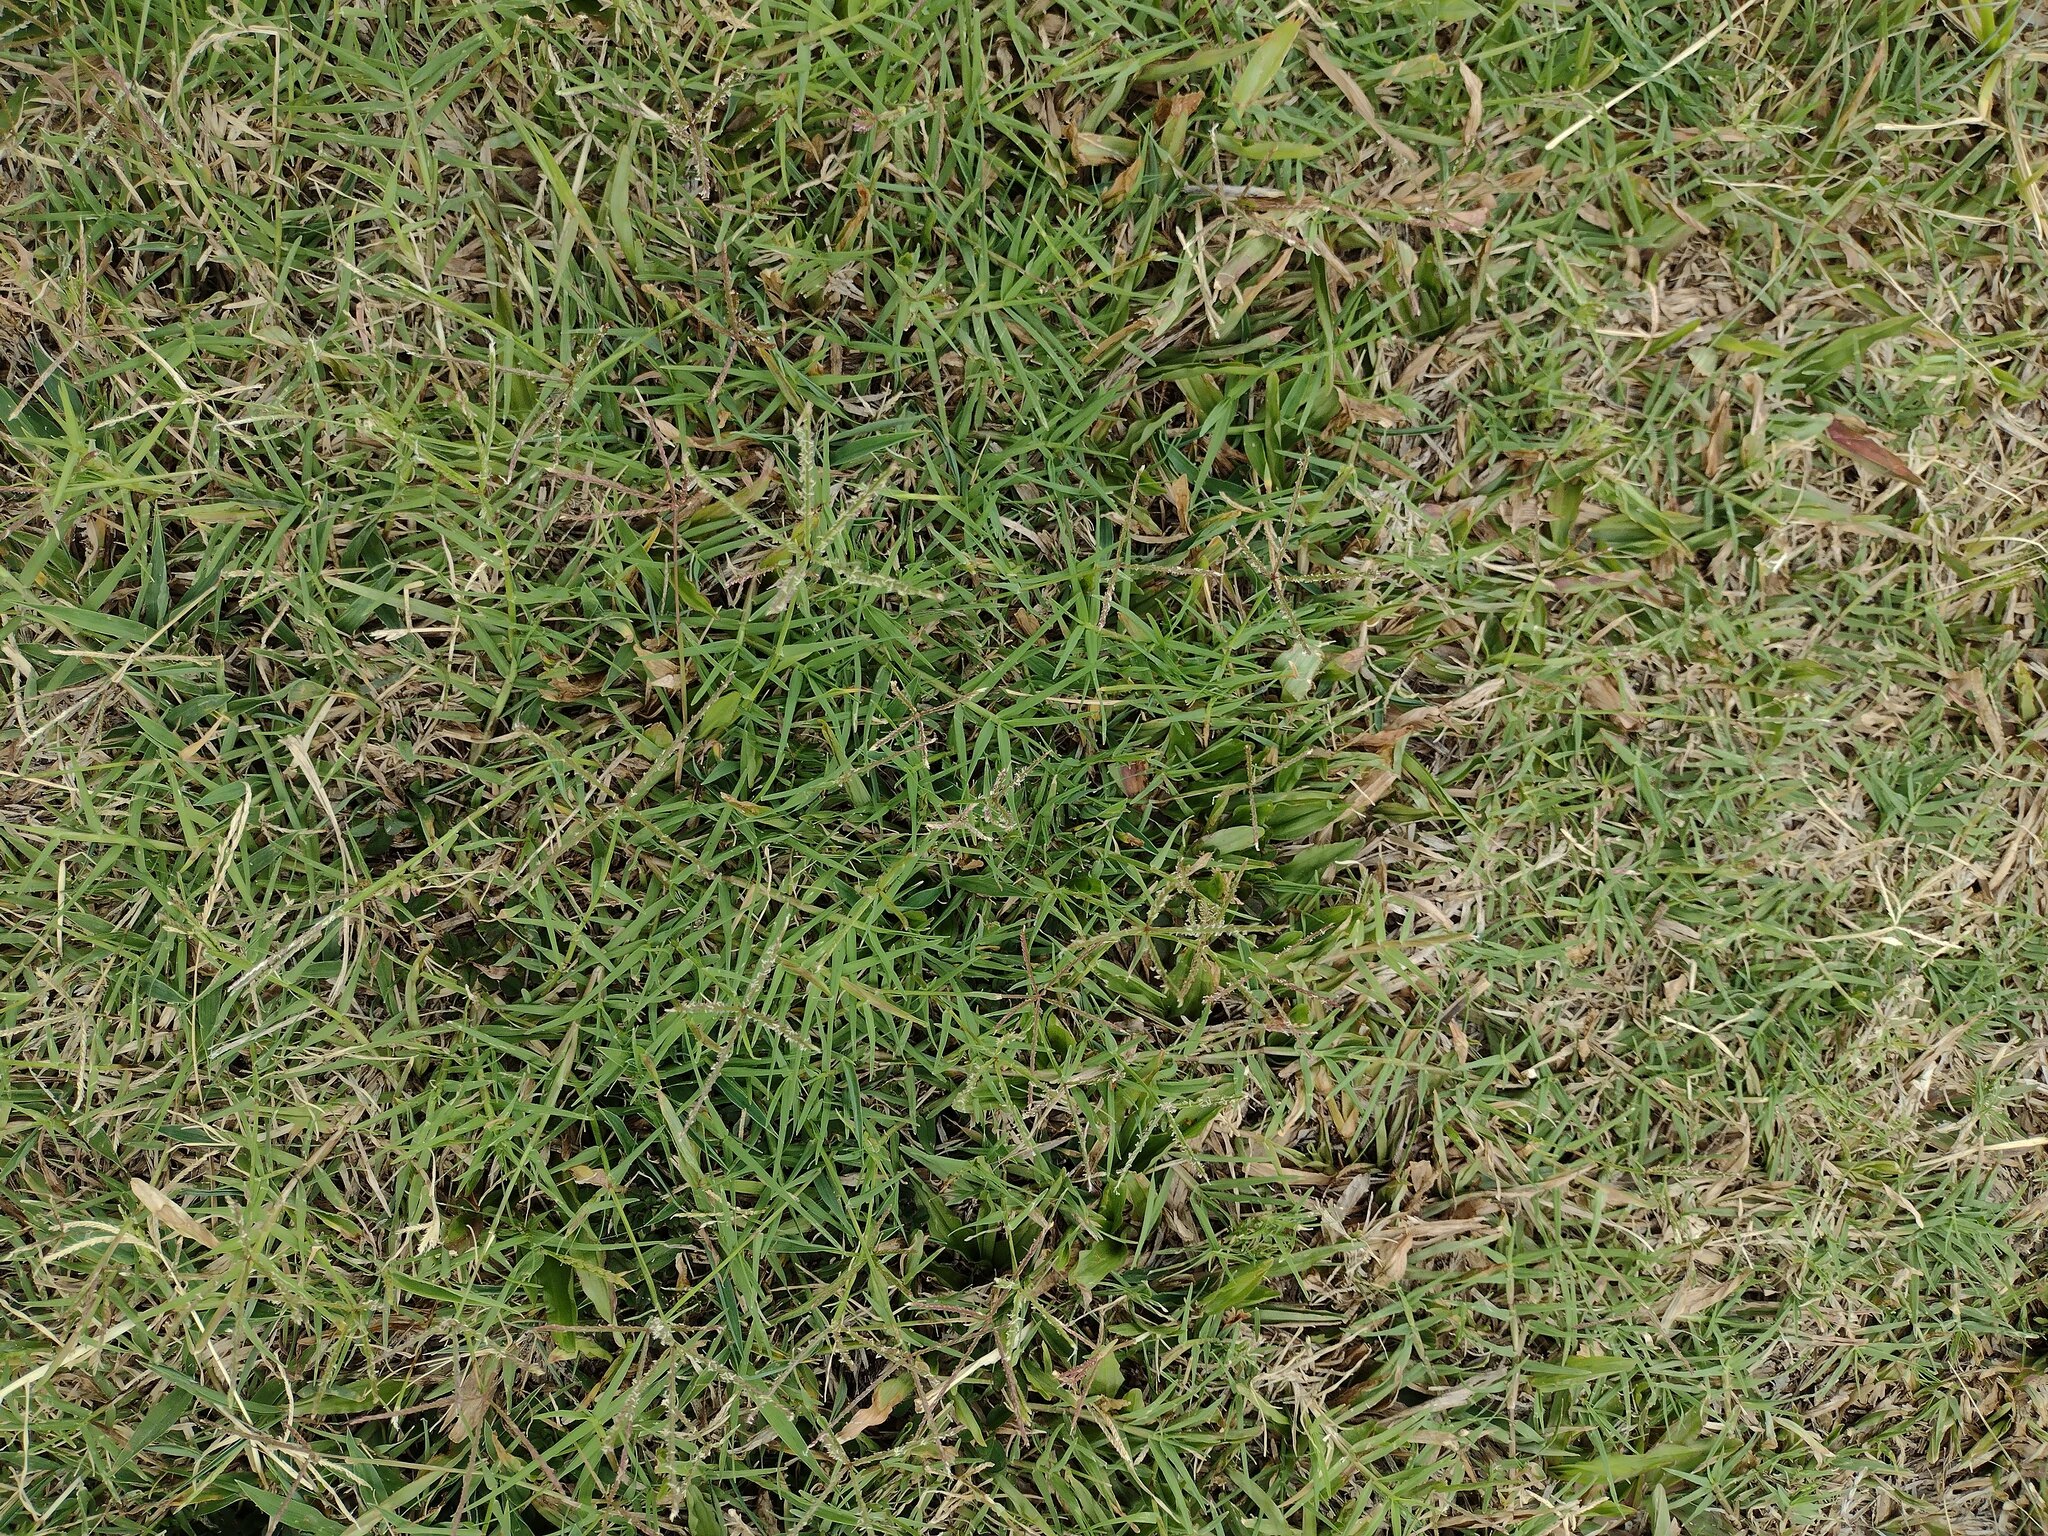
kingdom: Plantae
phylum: Tracheophyta
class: Liliopsida
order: Poales
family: Poaceae
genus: Cynodon
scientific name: Cynodon dactylon
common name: Bermuda grass
